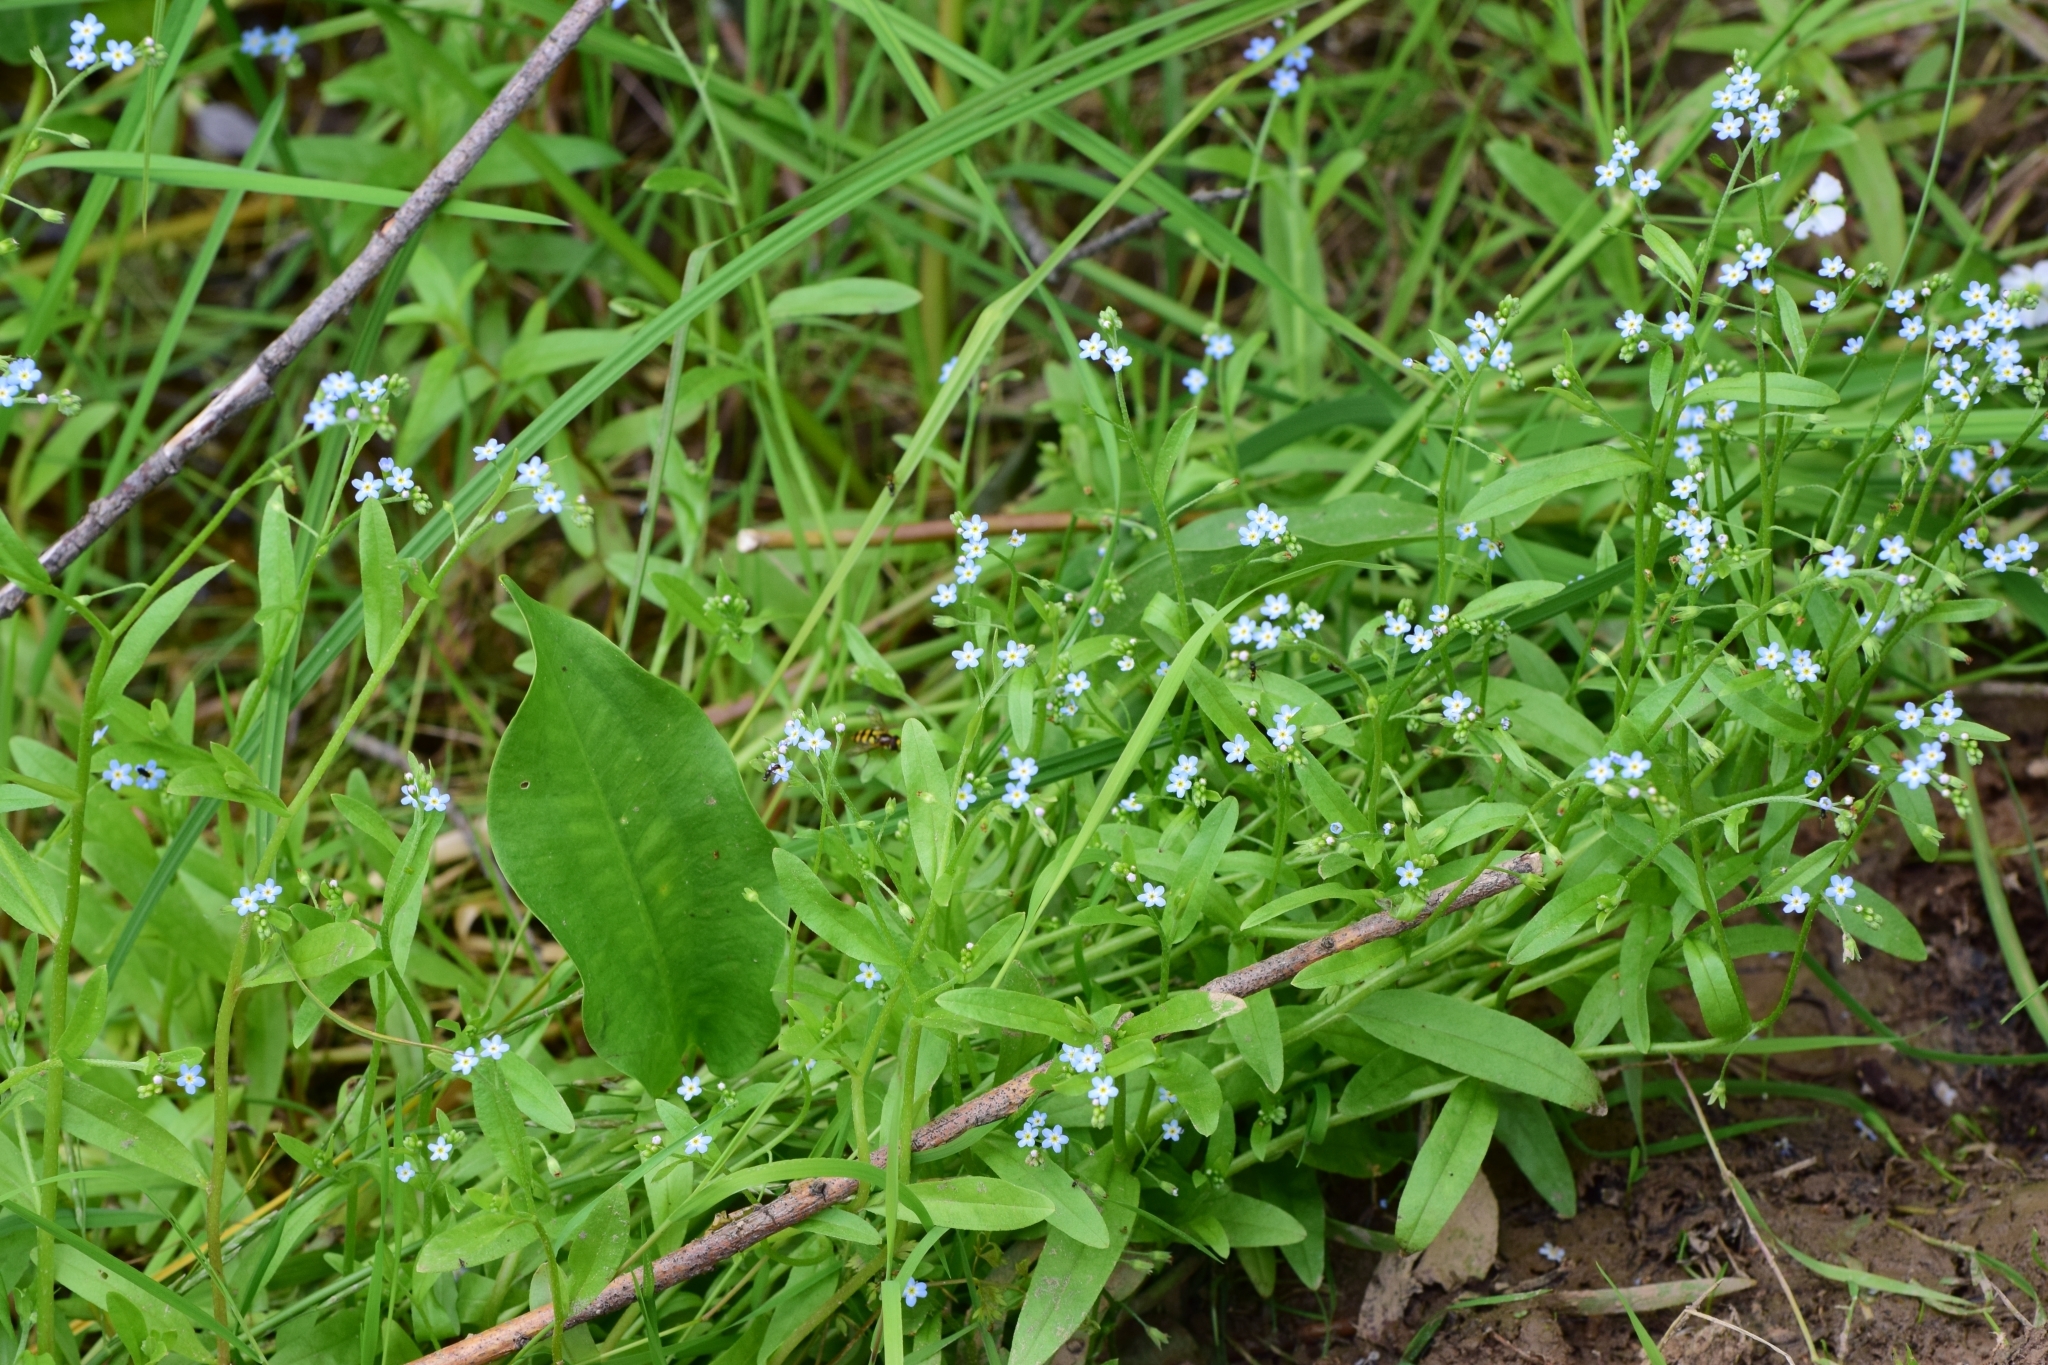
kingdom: Plantae
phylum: Tracheophyta
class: Magnoliopsida
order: Boraginales
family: Boraginaceae
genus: Myosotis
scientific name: Myosotis laxa
